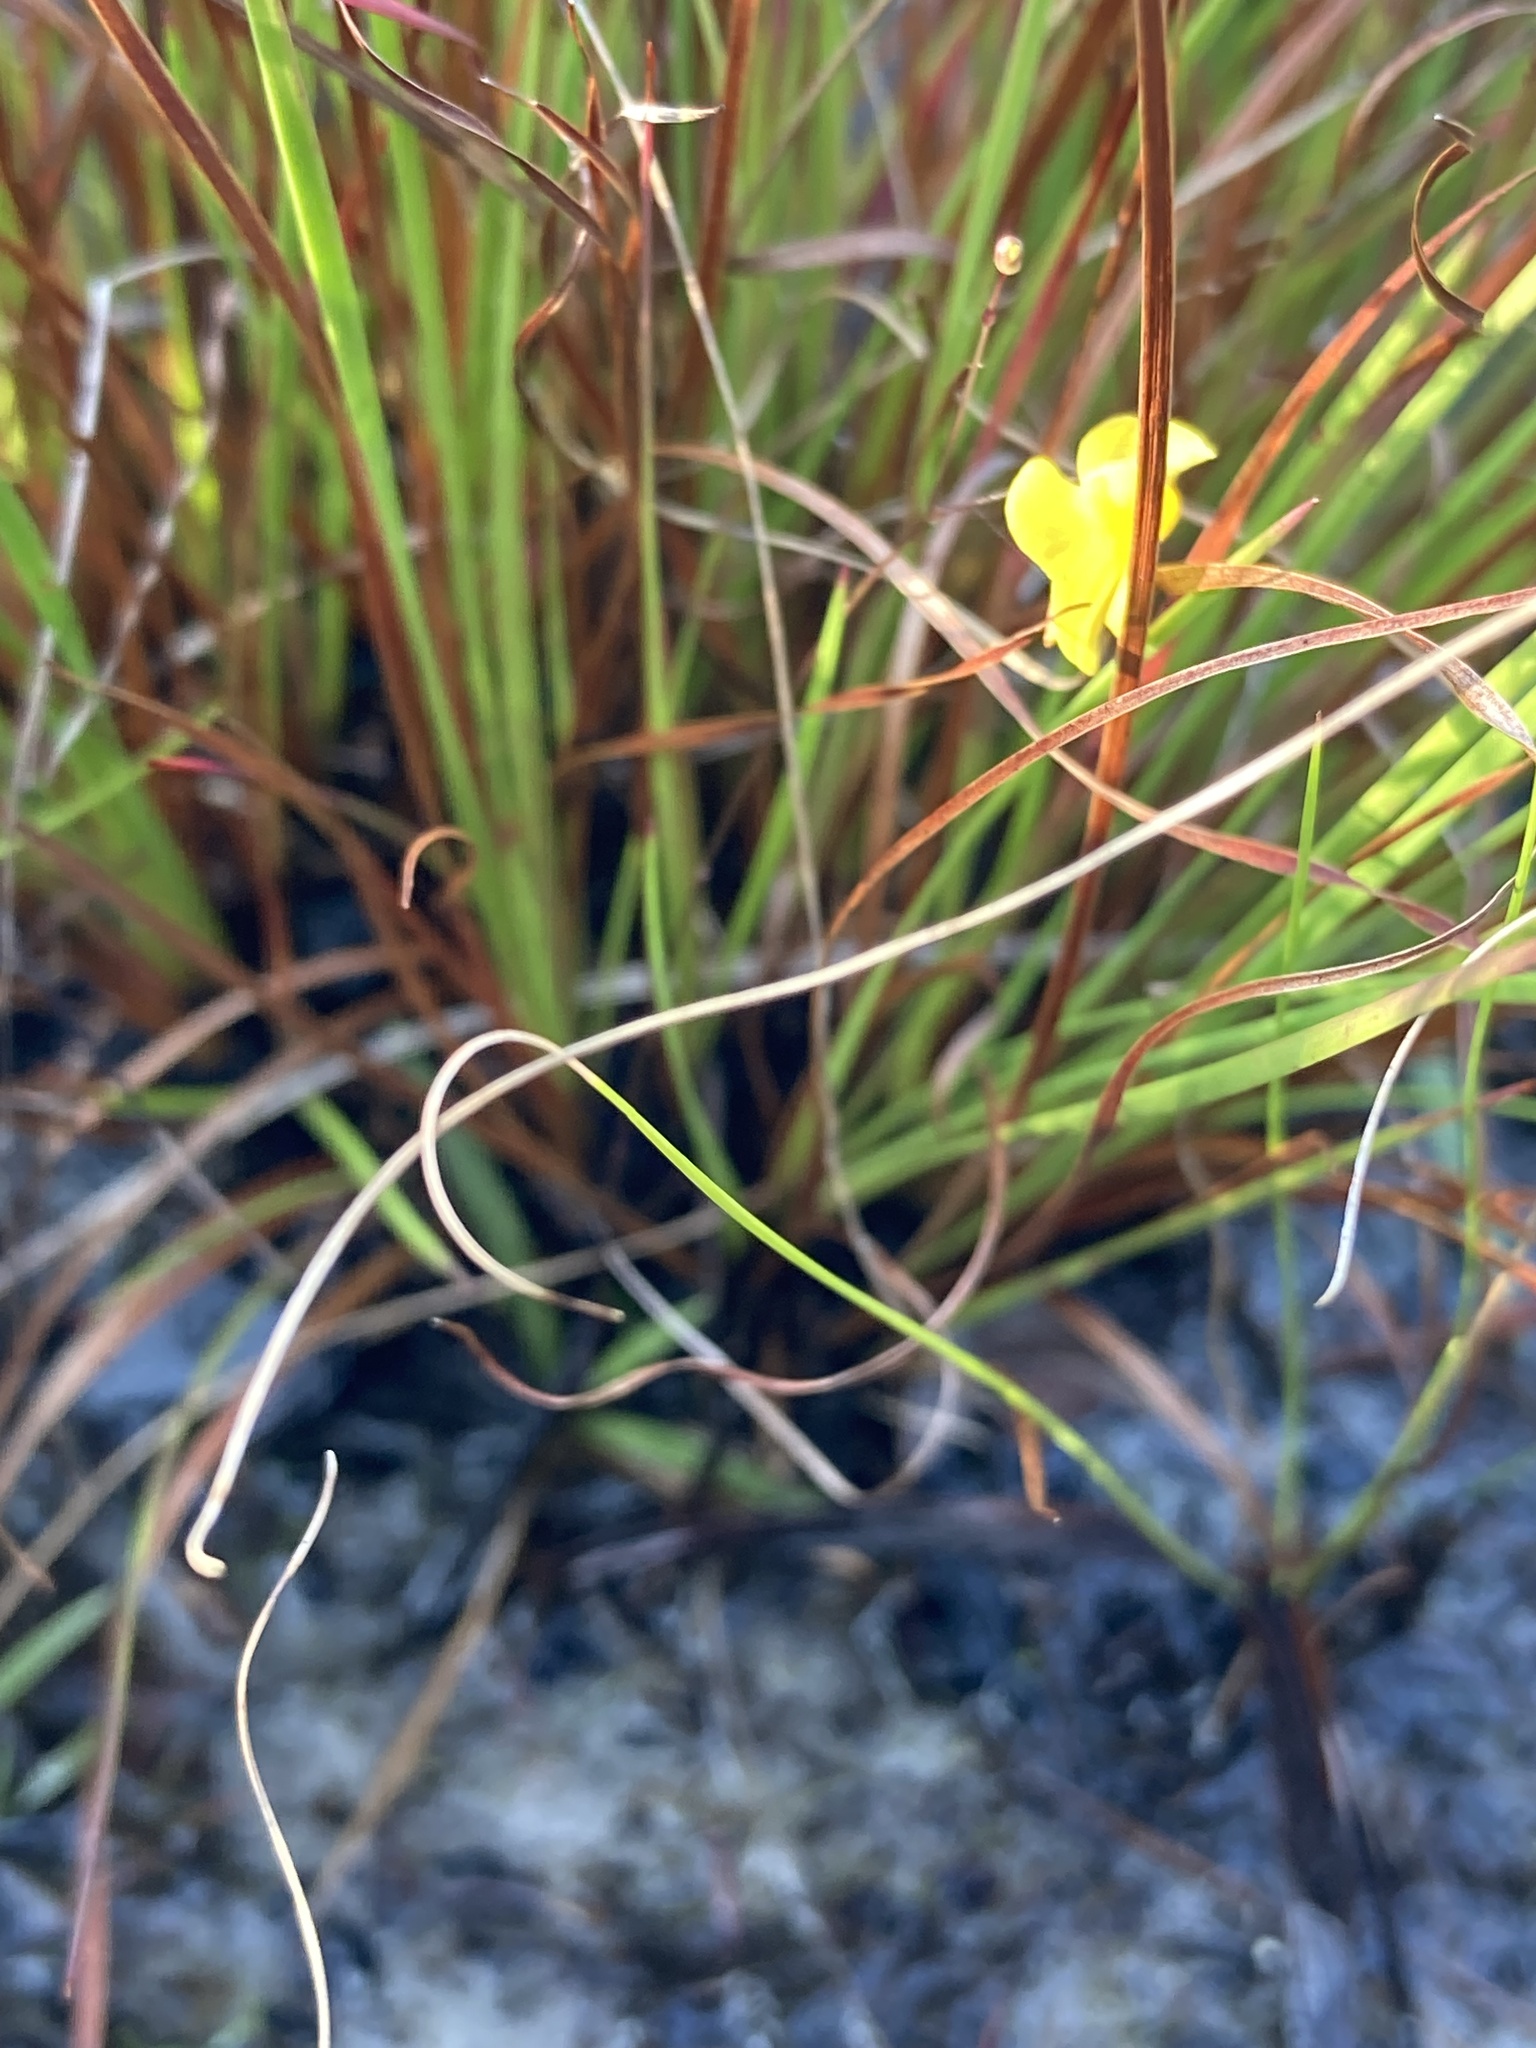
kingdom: Plantae
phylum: Tracheophyta
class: Magnoliopsida
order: Lamiales
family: Lentibulariaceae
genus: Utricularia
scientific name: Utricularia subulata
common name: Tiny bladderwort
